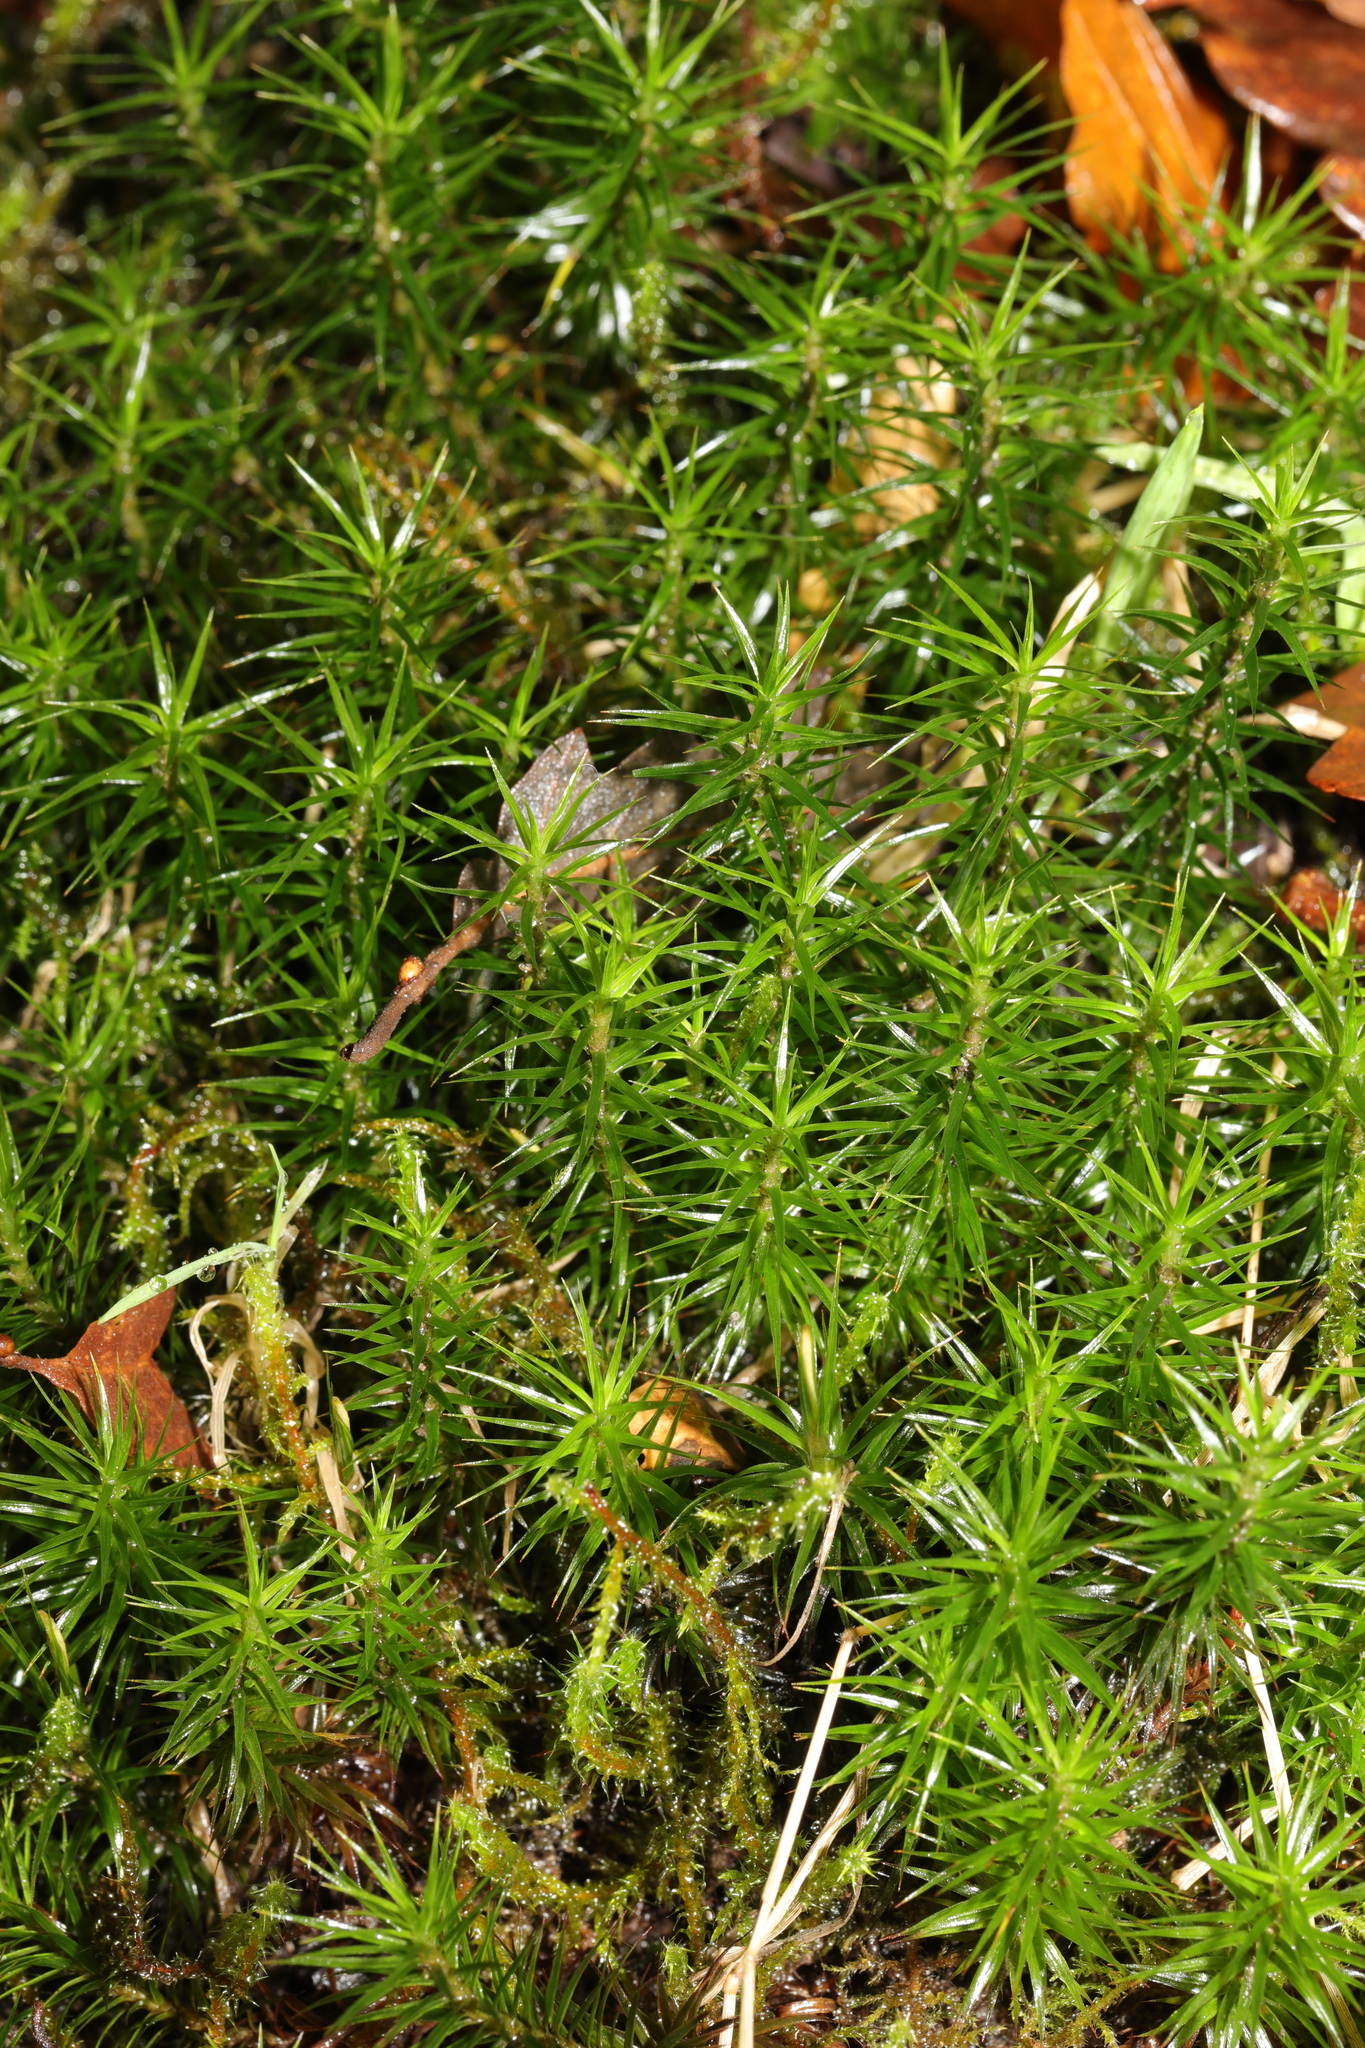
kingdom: Plantae
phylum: Bryophyta
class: Polytrichopsida
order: Polytrichales
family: Polytrichaceae
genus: Polytrichum
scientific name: Polytrichum formosum
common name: Bank haircap moss
